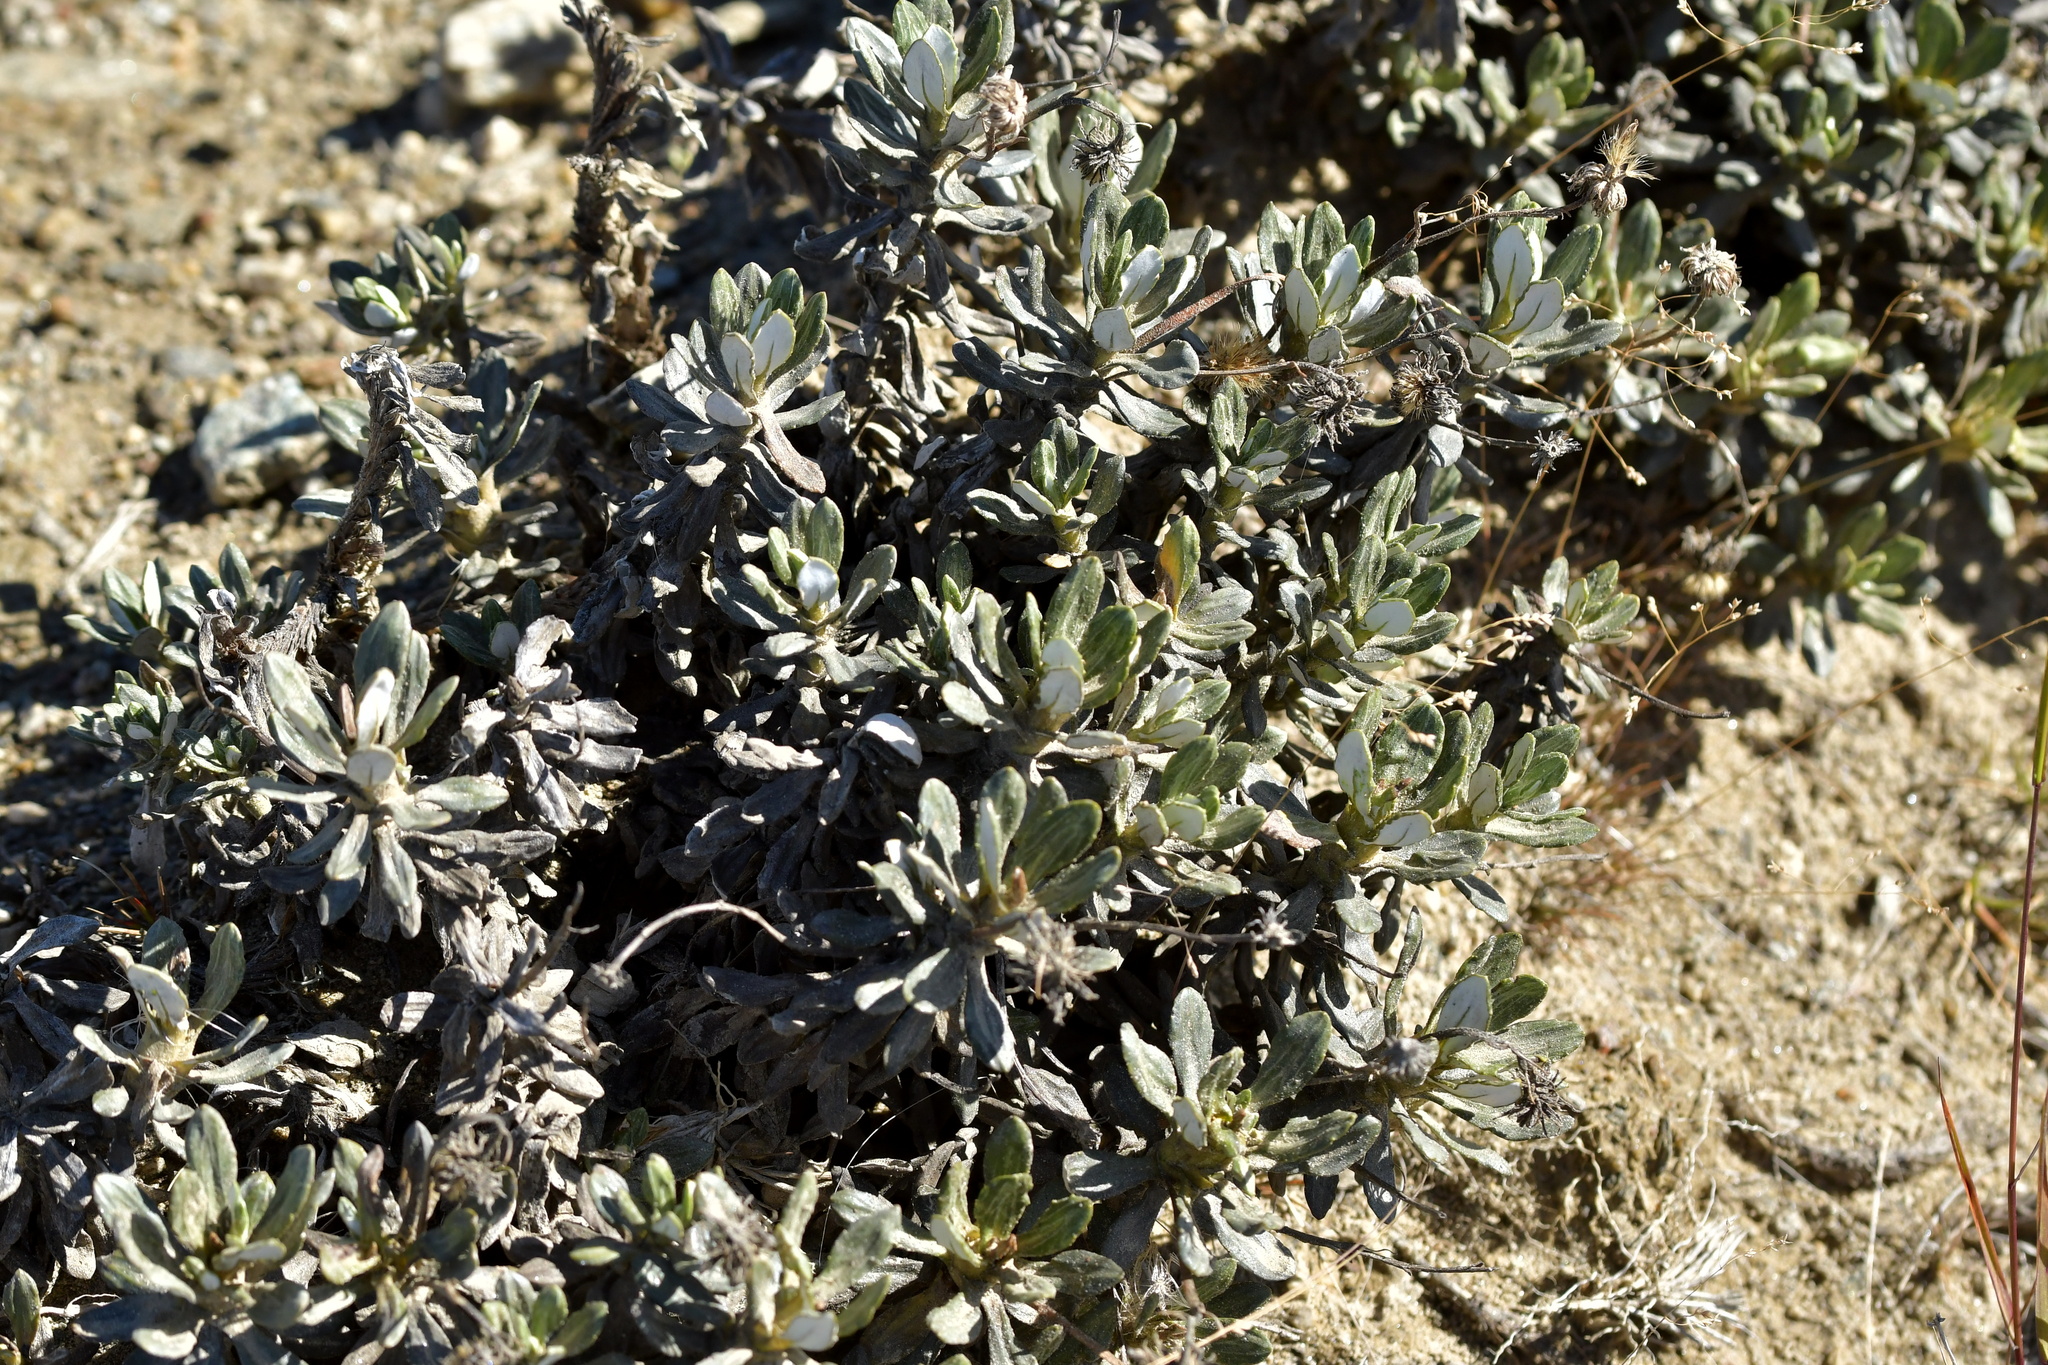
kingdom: Plantae
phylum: Tracheophyta
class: Magnoliopsida
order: Asterales
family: Asteraceae
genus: Celmisia
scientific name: Celmisia brevifolia
